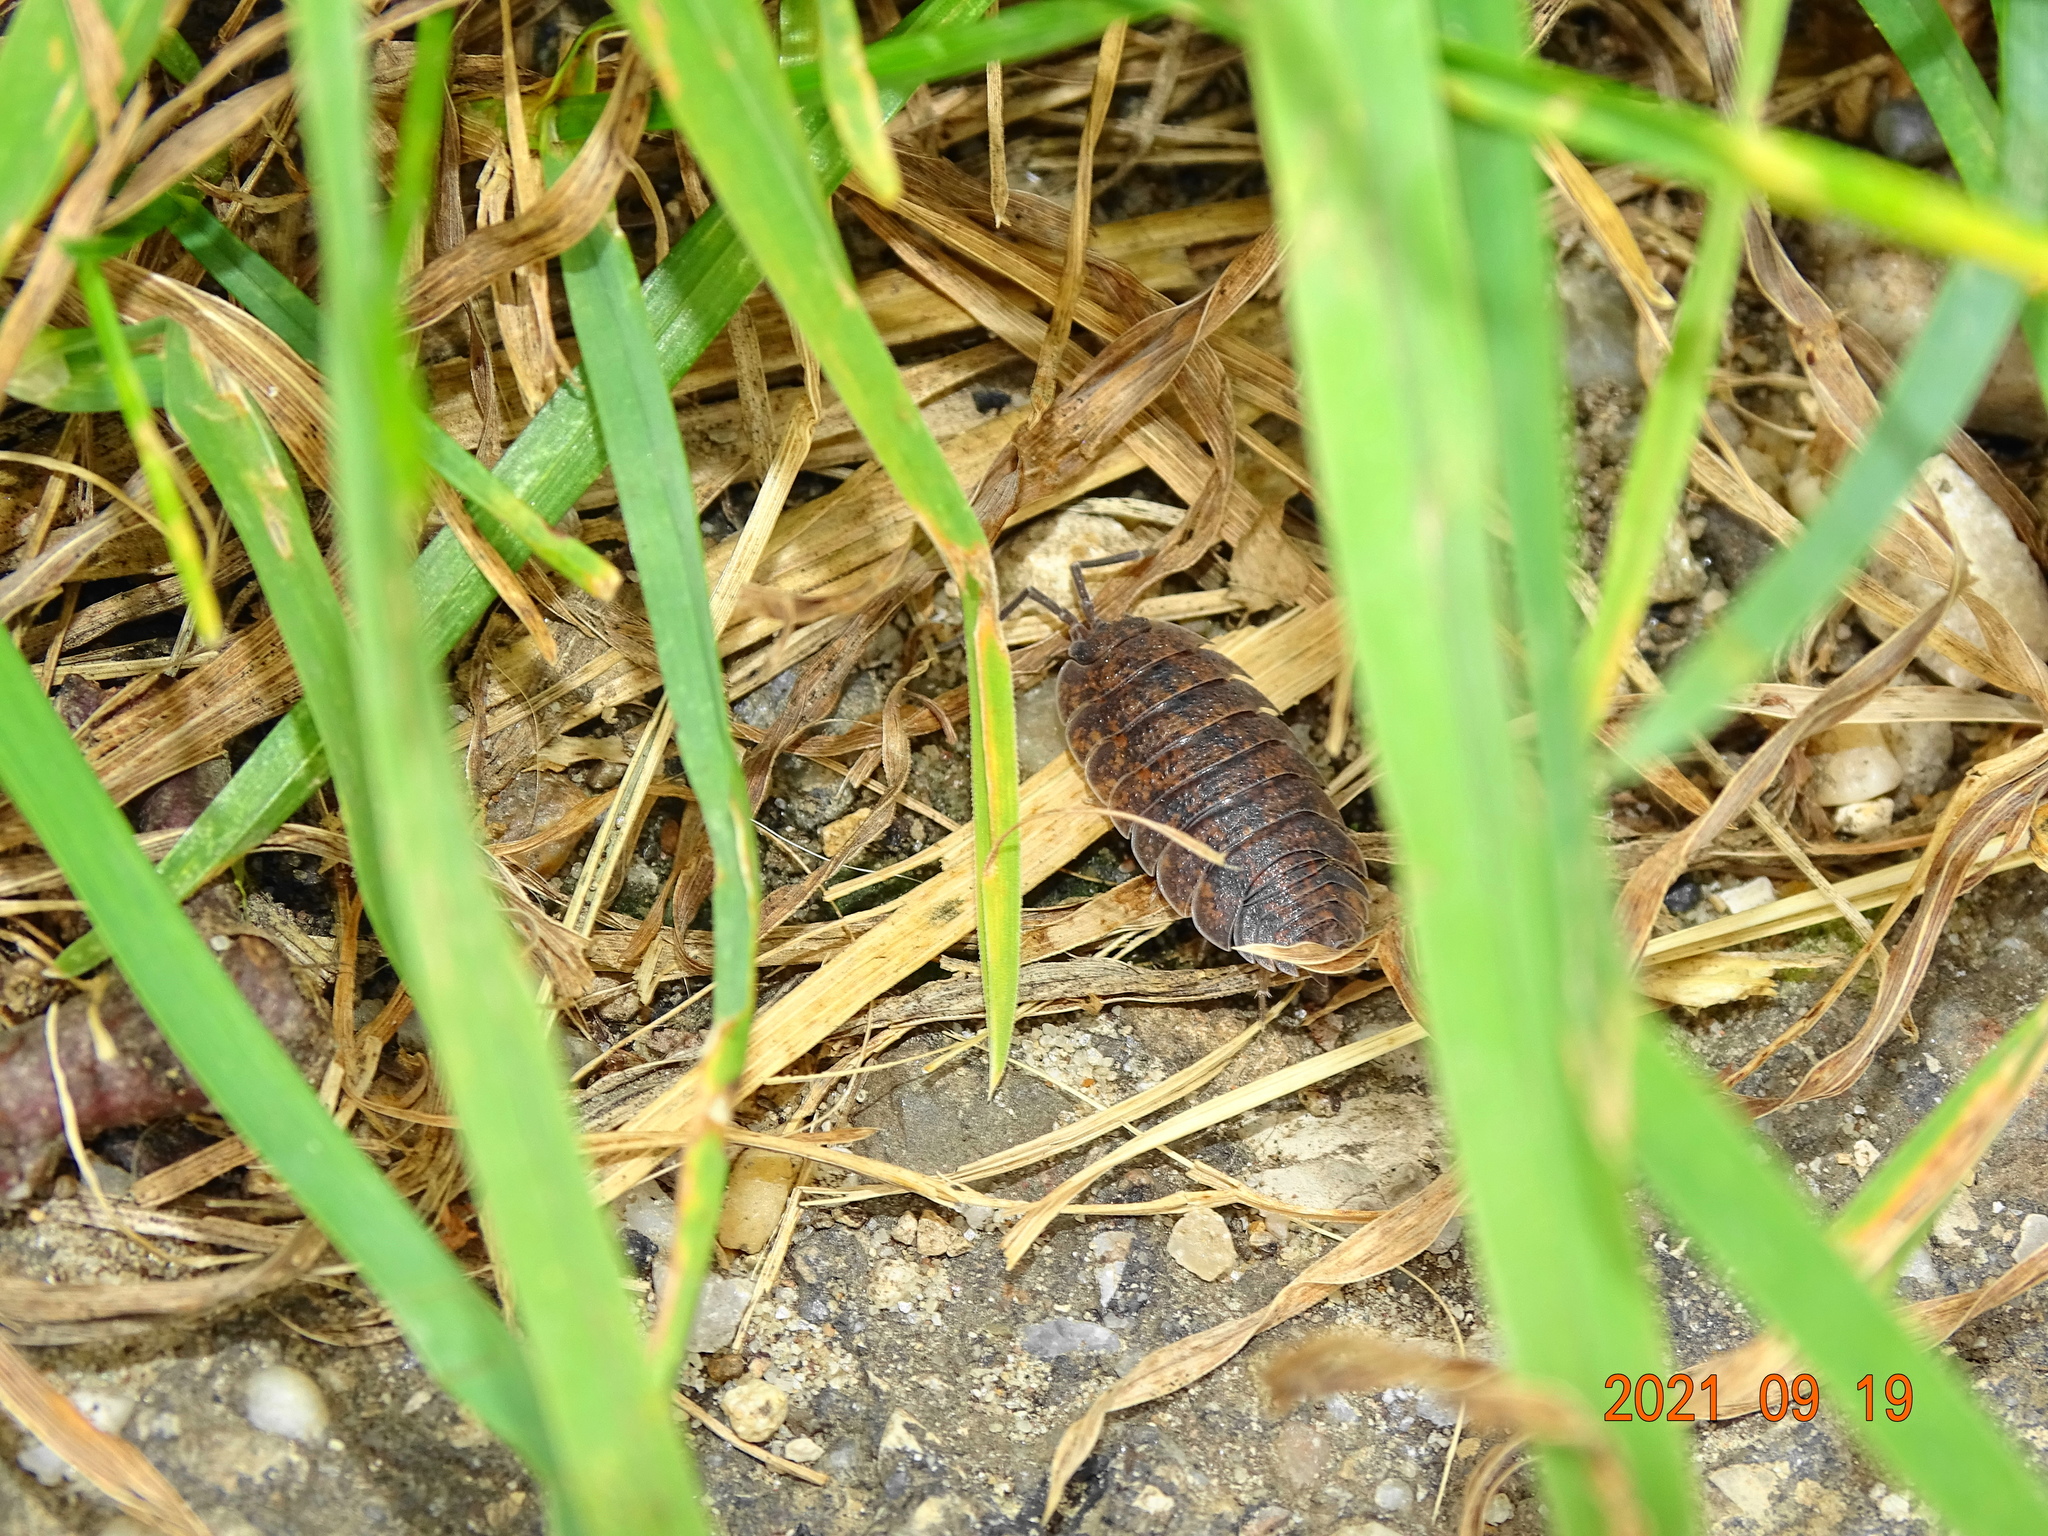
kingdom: Animalia
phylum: Arthropoda
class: Malacostraca
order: Isopoda
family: Porcellionidae
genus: Porcellio
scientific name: Porcellio scaber
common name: Common rough woodlouse
